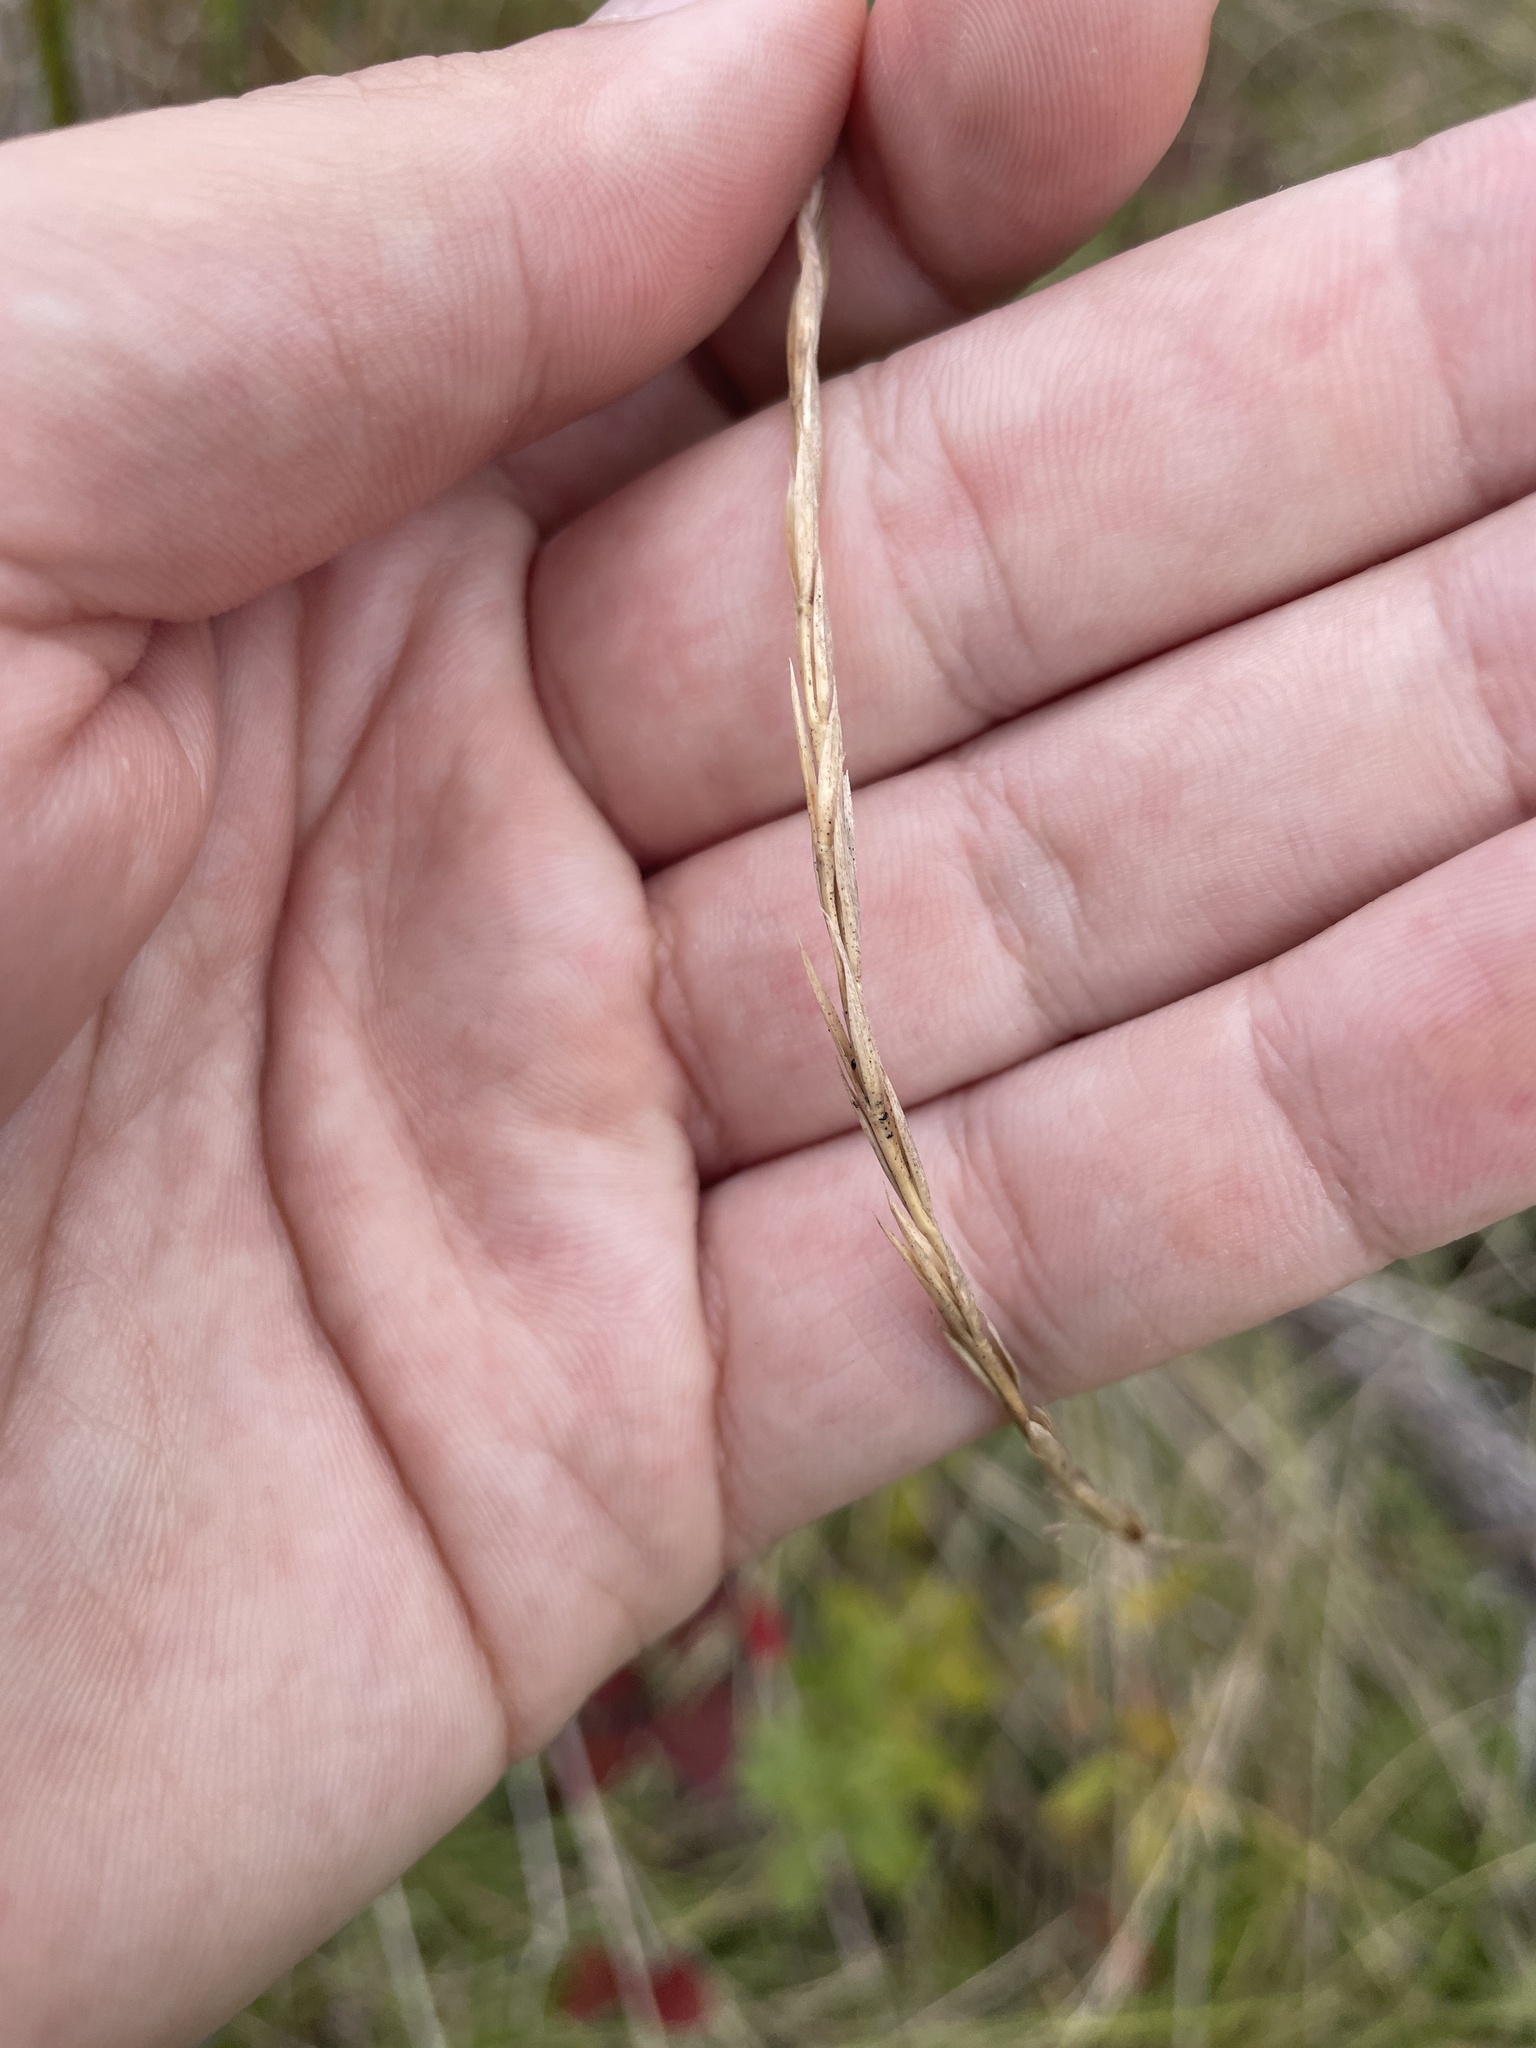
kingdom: Plantae
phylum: Tracheophyta
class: Liliopsida
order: Poales
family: Poaceae
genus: Elymus
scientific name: Elymus violaceus
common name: Arctic wheatgrass
